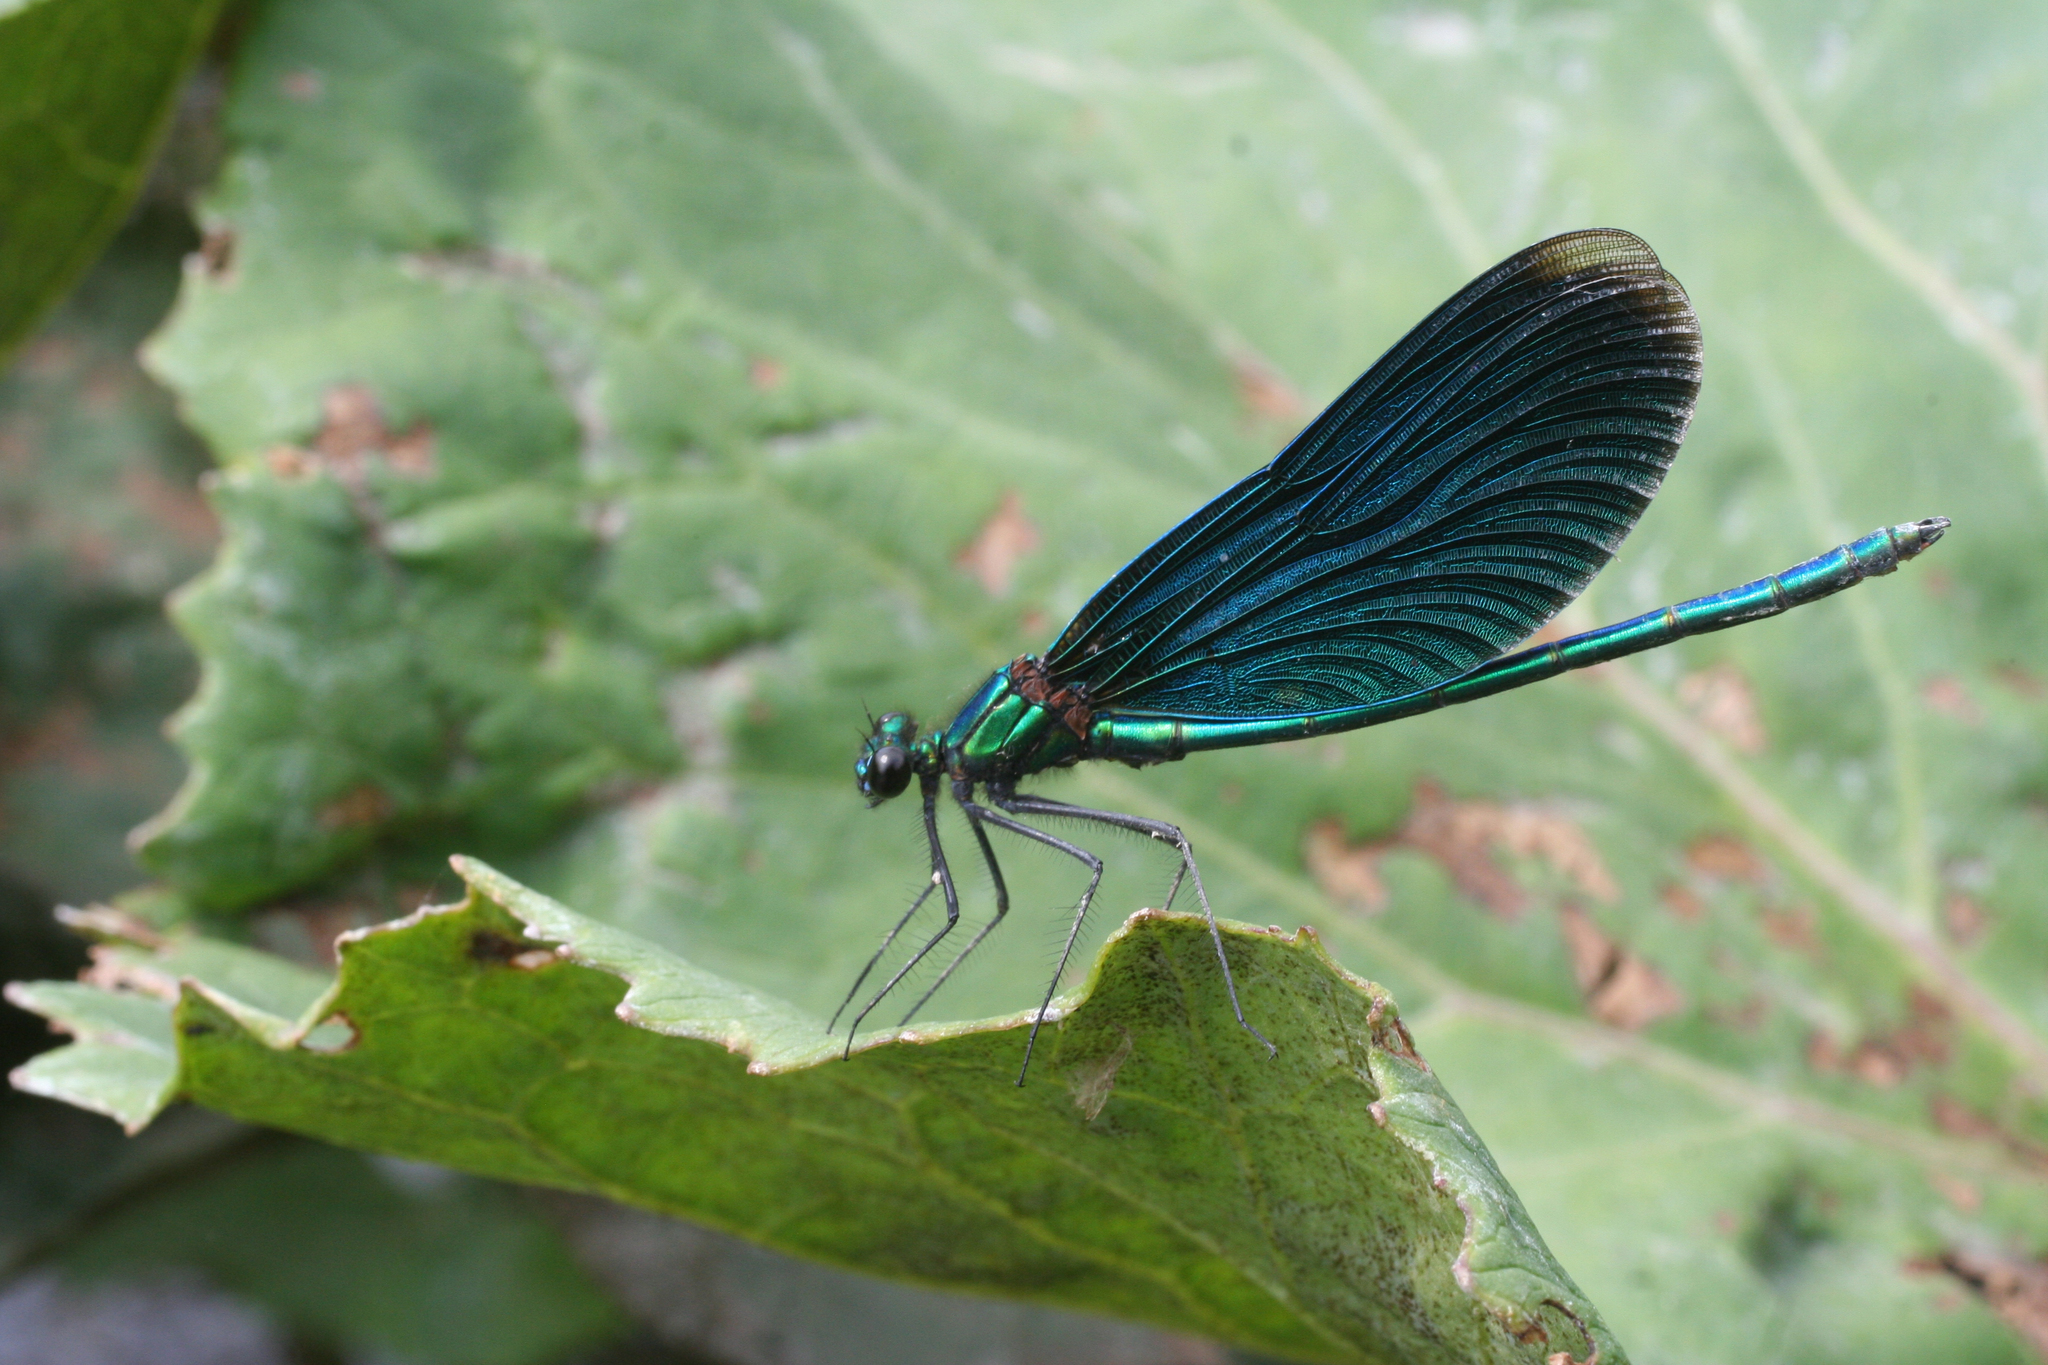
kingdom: Animalia
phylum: Arthropoda
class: Insecta
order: Odonata
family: Calopterygidae
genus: Calopteryx
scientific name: Calopteryx virgo
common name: Beautiful demoiselle
